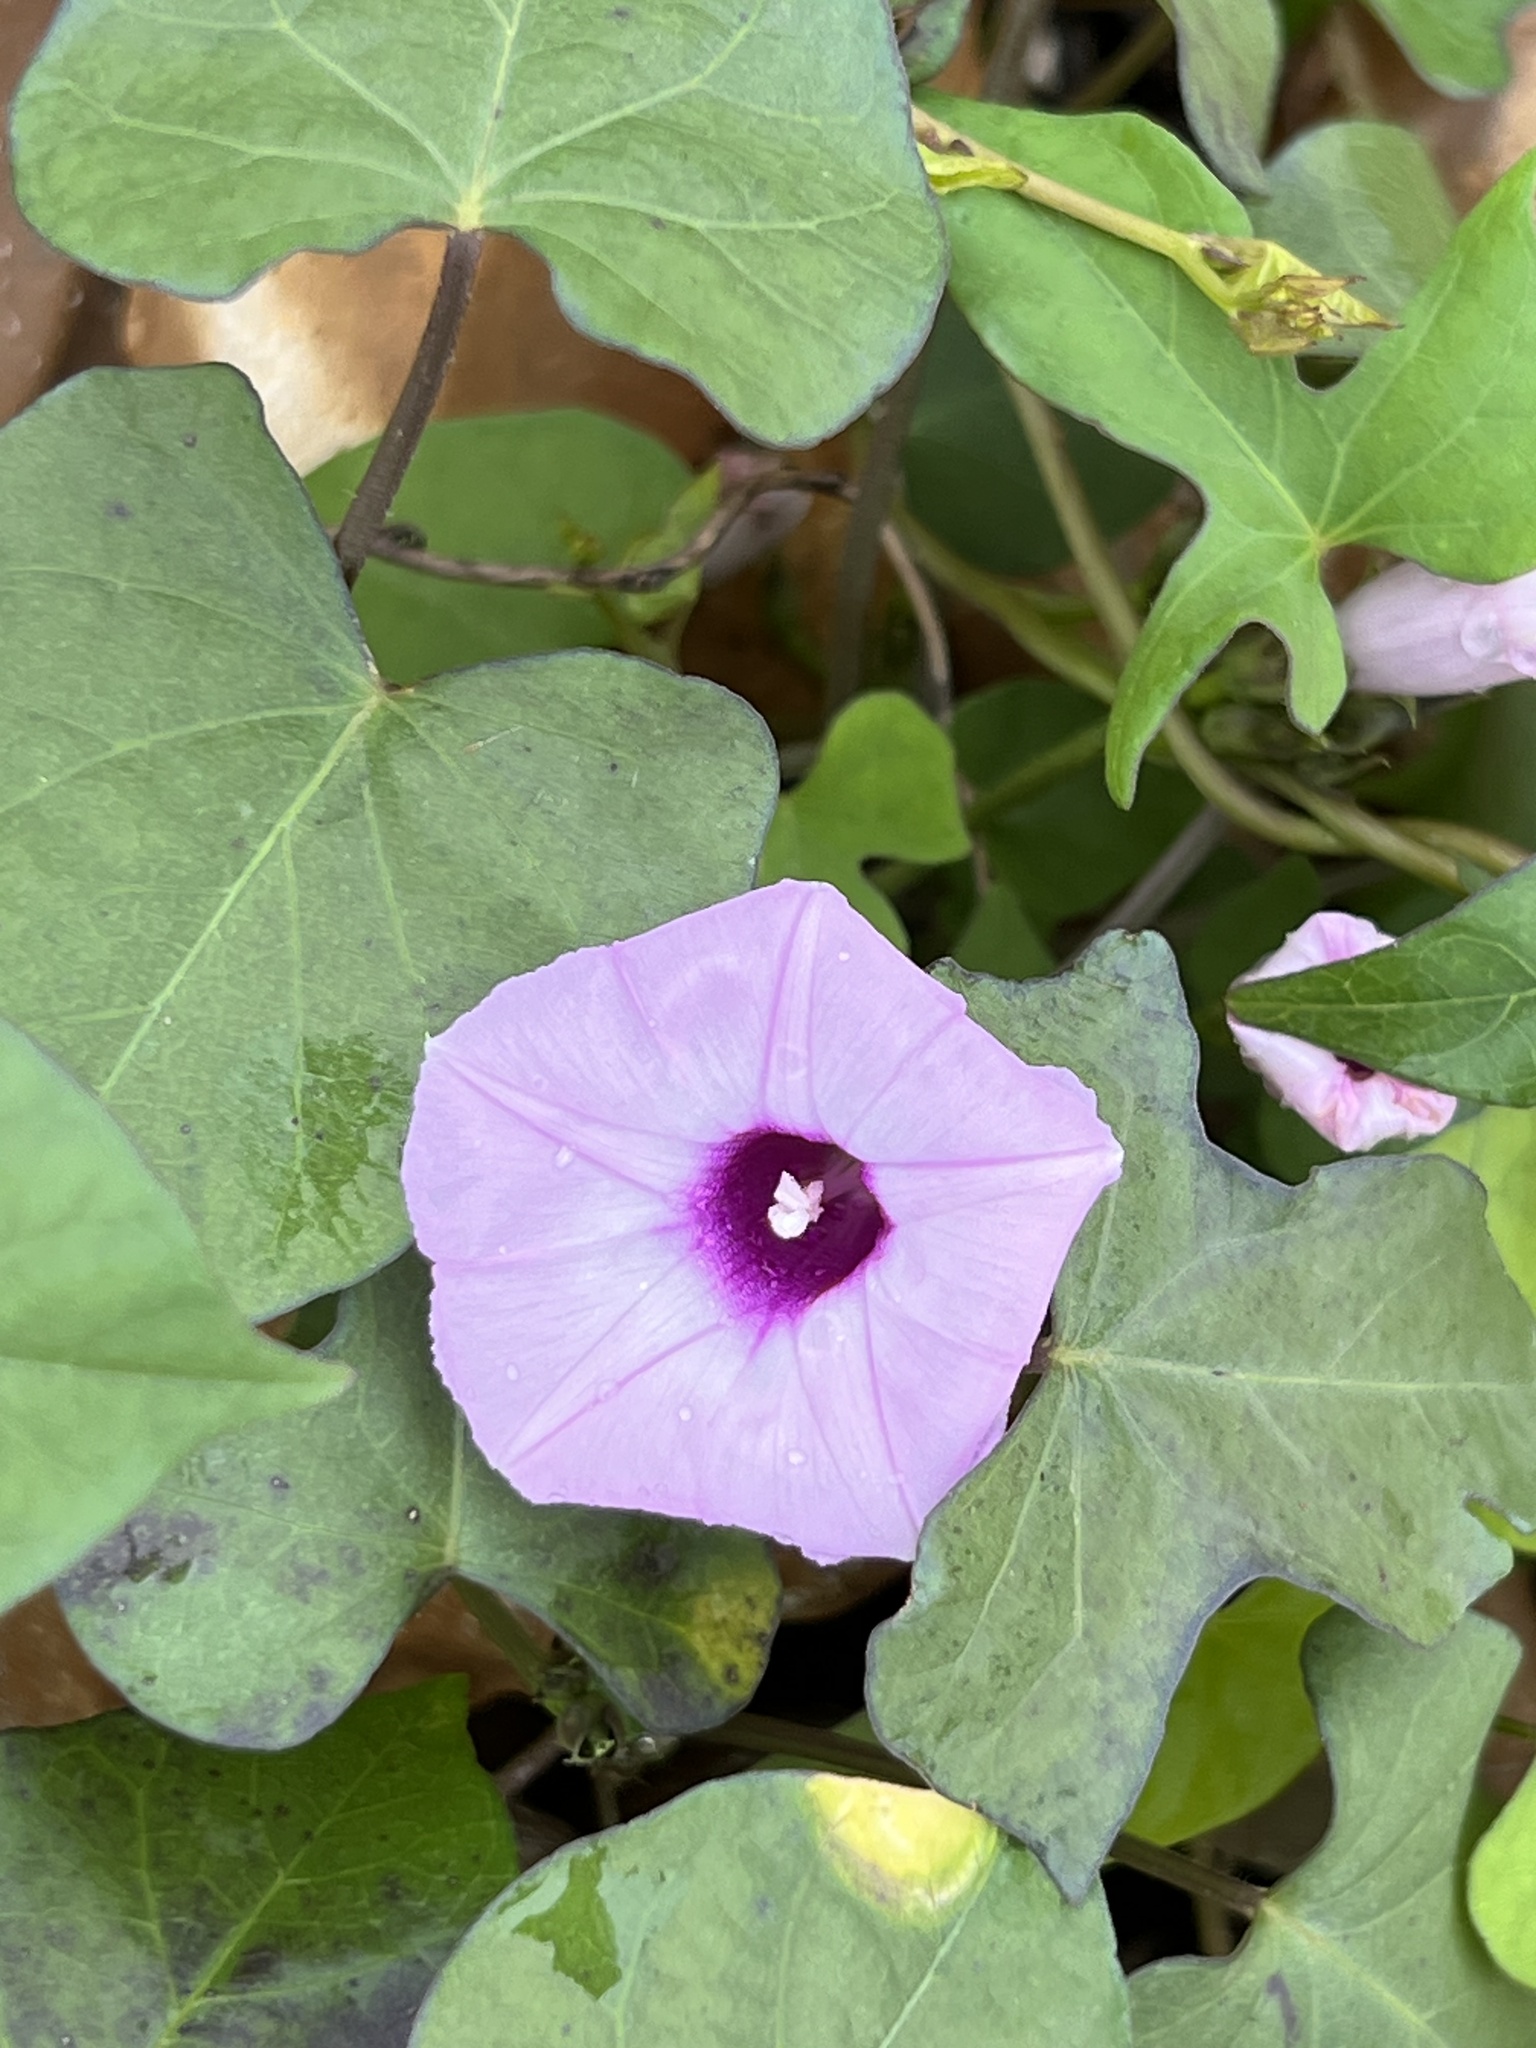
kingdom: Plantae
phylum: Tracheophyta
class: Magnoliopsida
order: Solanales
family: Convolvulaceae
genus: Ipomoea
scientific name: Ipomoea cordatotriloba
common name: Cotton morning glory
